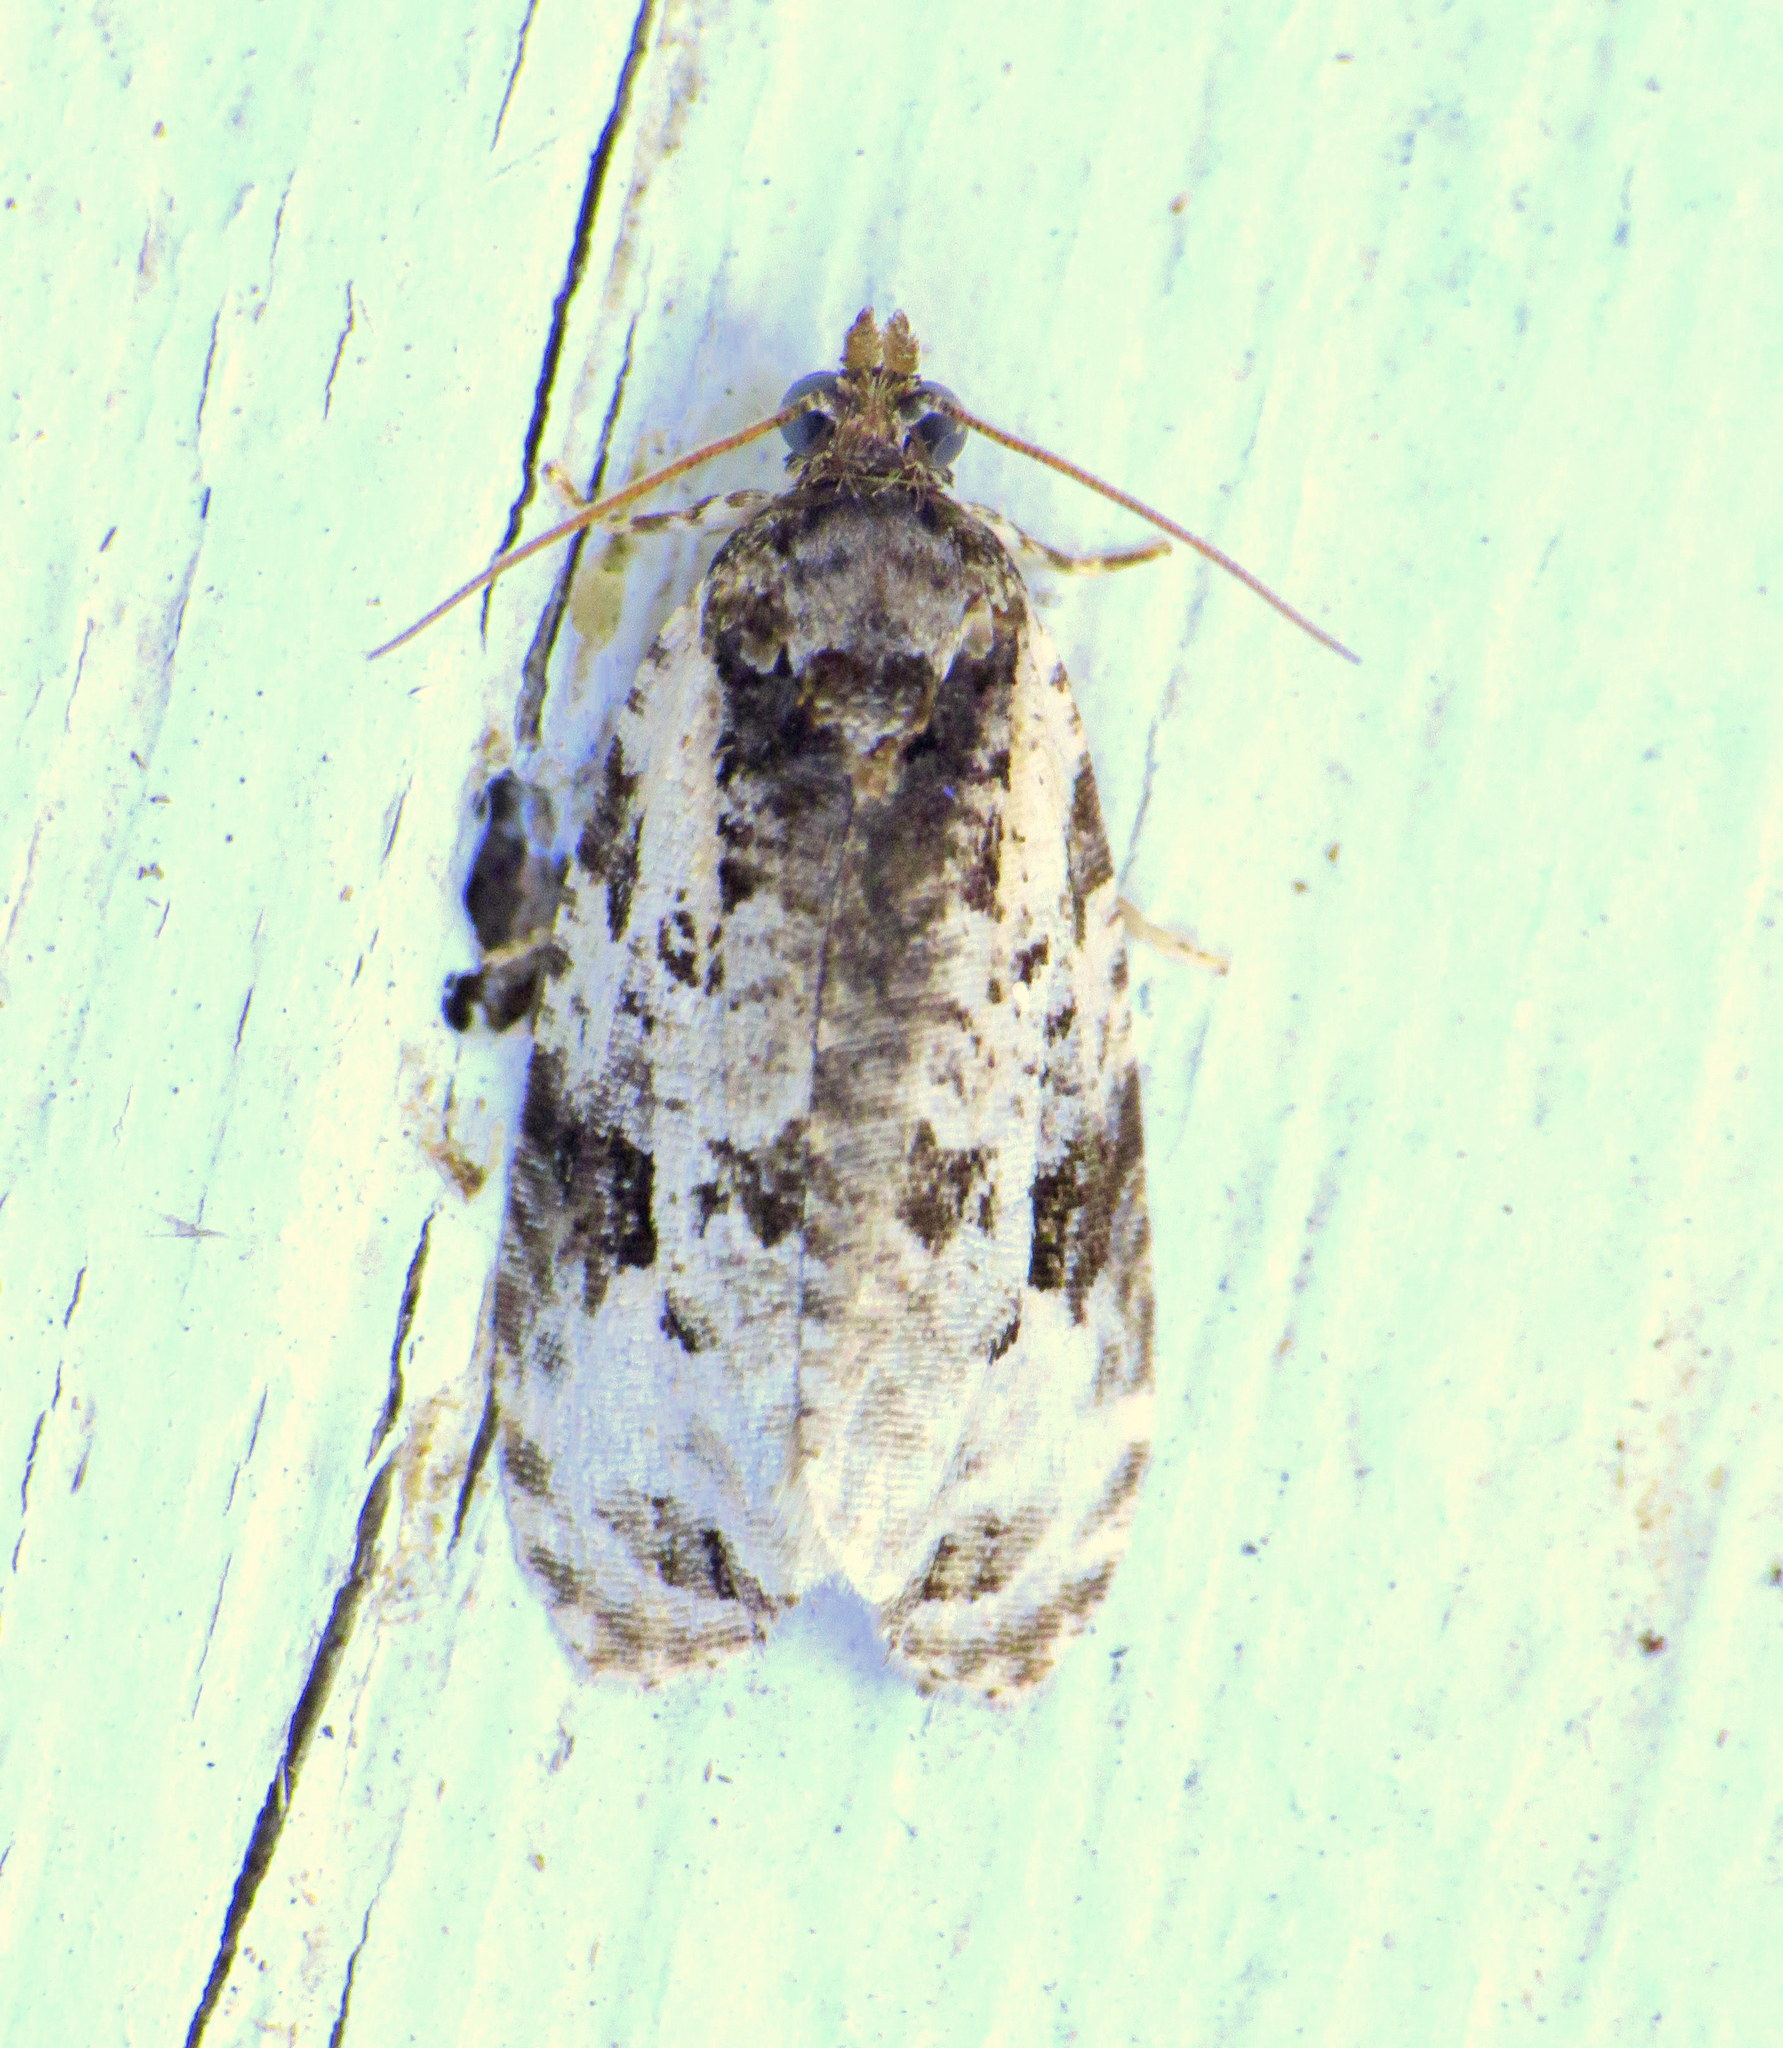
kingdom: Animalia
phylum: Arthropoda
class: Insecta
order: Lepidoptera
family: Tortricidae
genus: Apotomis
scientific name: Apotomis albeolana
